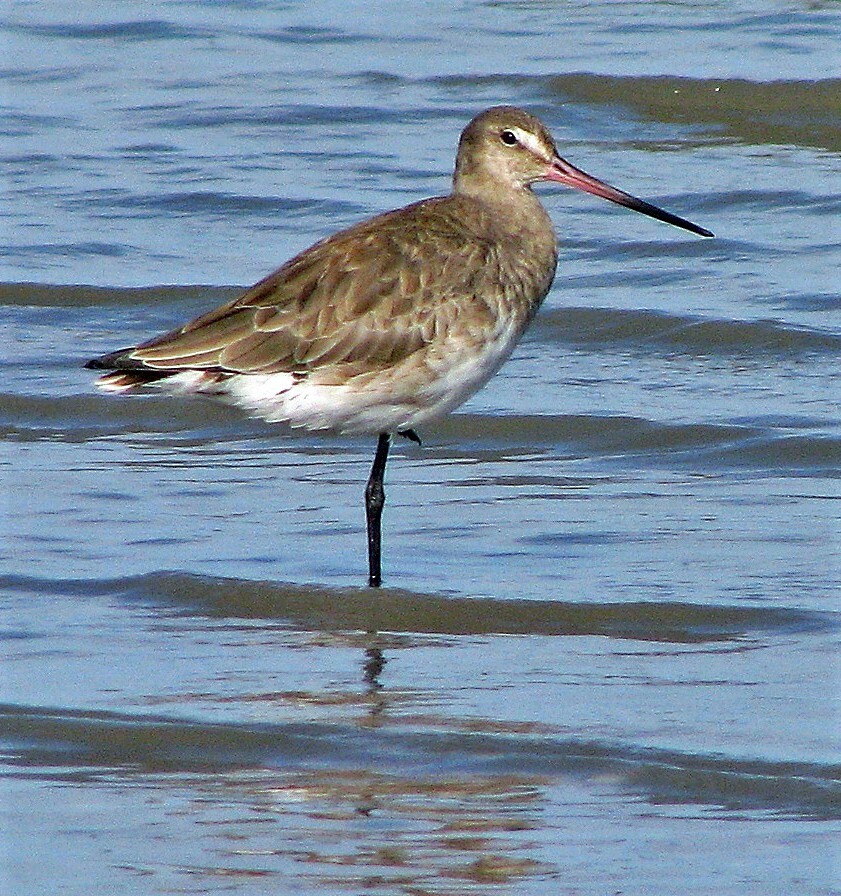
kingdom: Animalia
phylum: Chordata
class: Aves
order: Charadriiformes
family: Scolopacidae
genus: Limosa
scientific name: Limosa haemastica
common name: Hudsonian godwit
